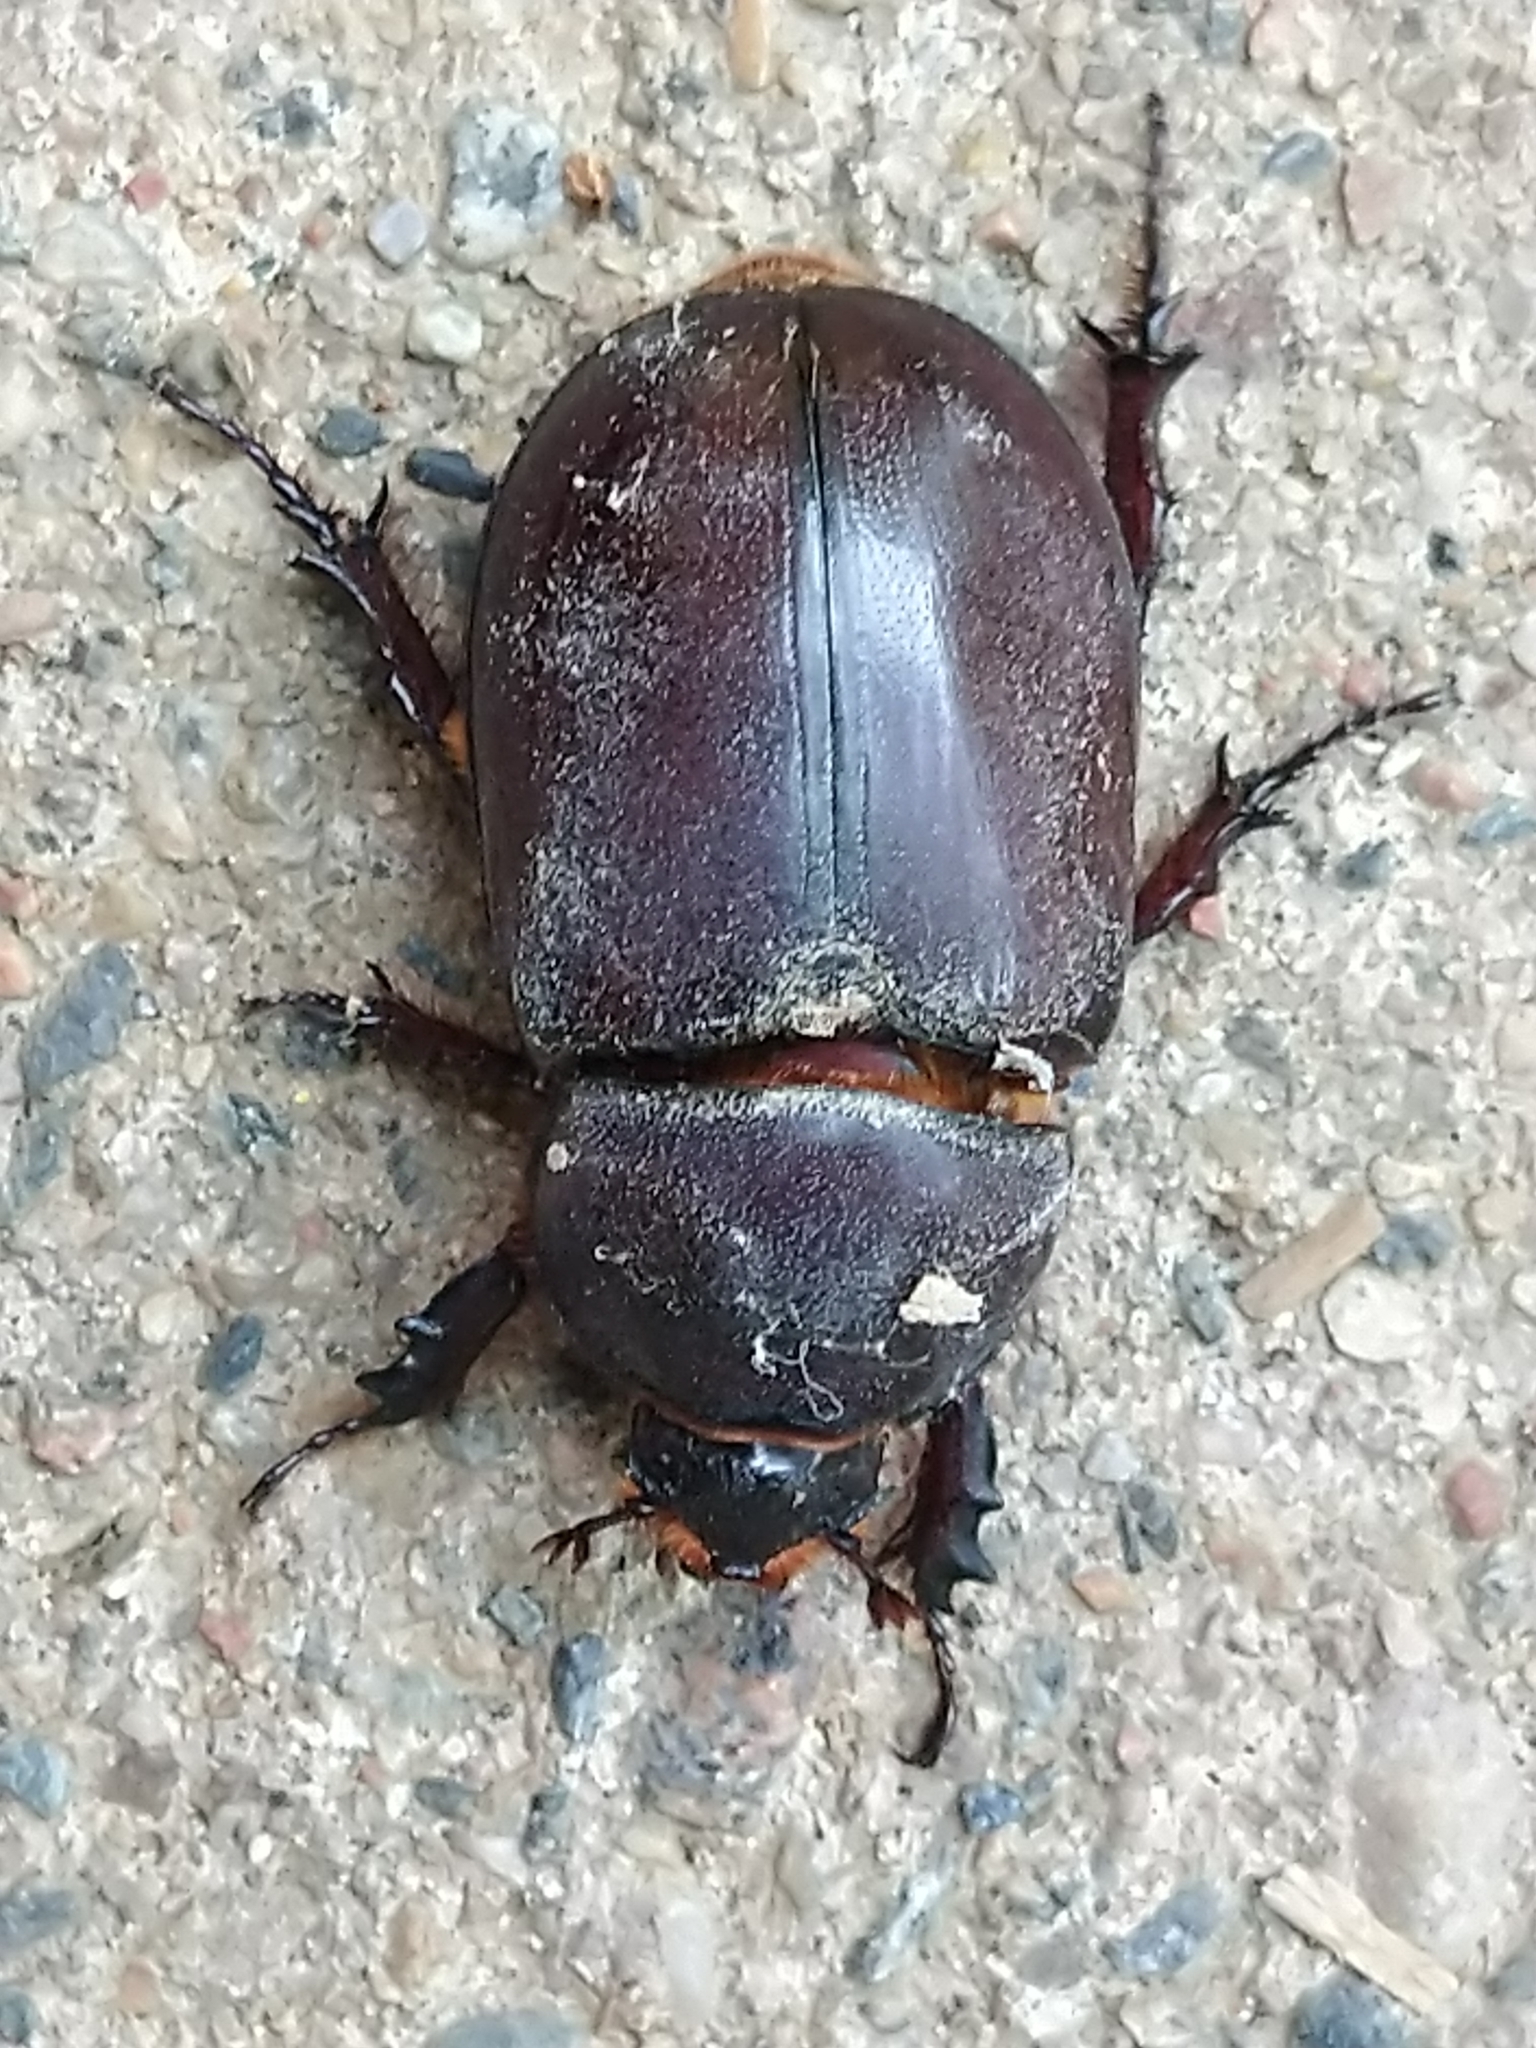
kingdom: Animalia
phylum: Arthropoda
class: Insecta
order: Coleoptera
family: Scarabaeidae
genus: Oryctes
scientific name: Oryctes nasicornis
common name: European rhinoceros beetle
